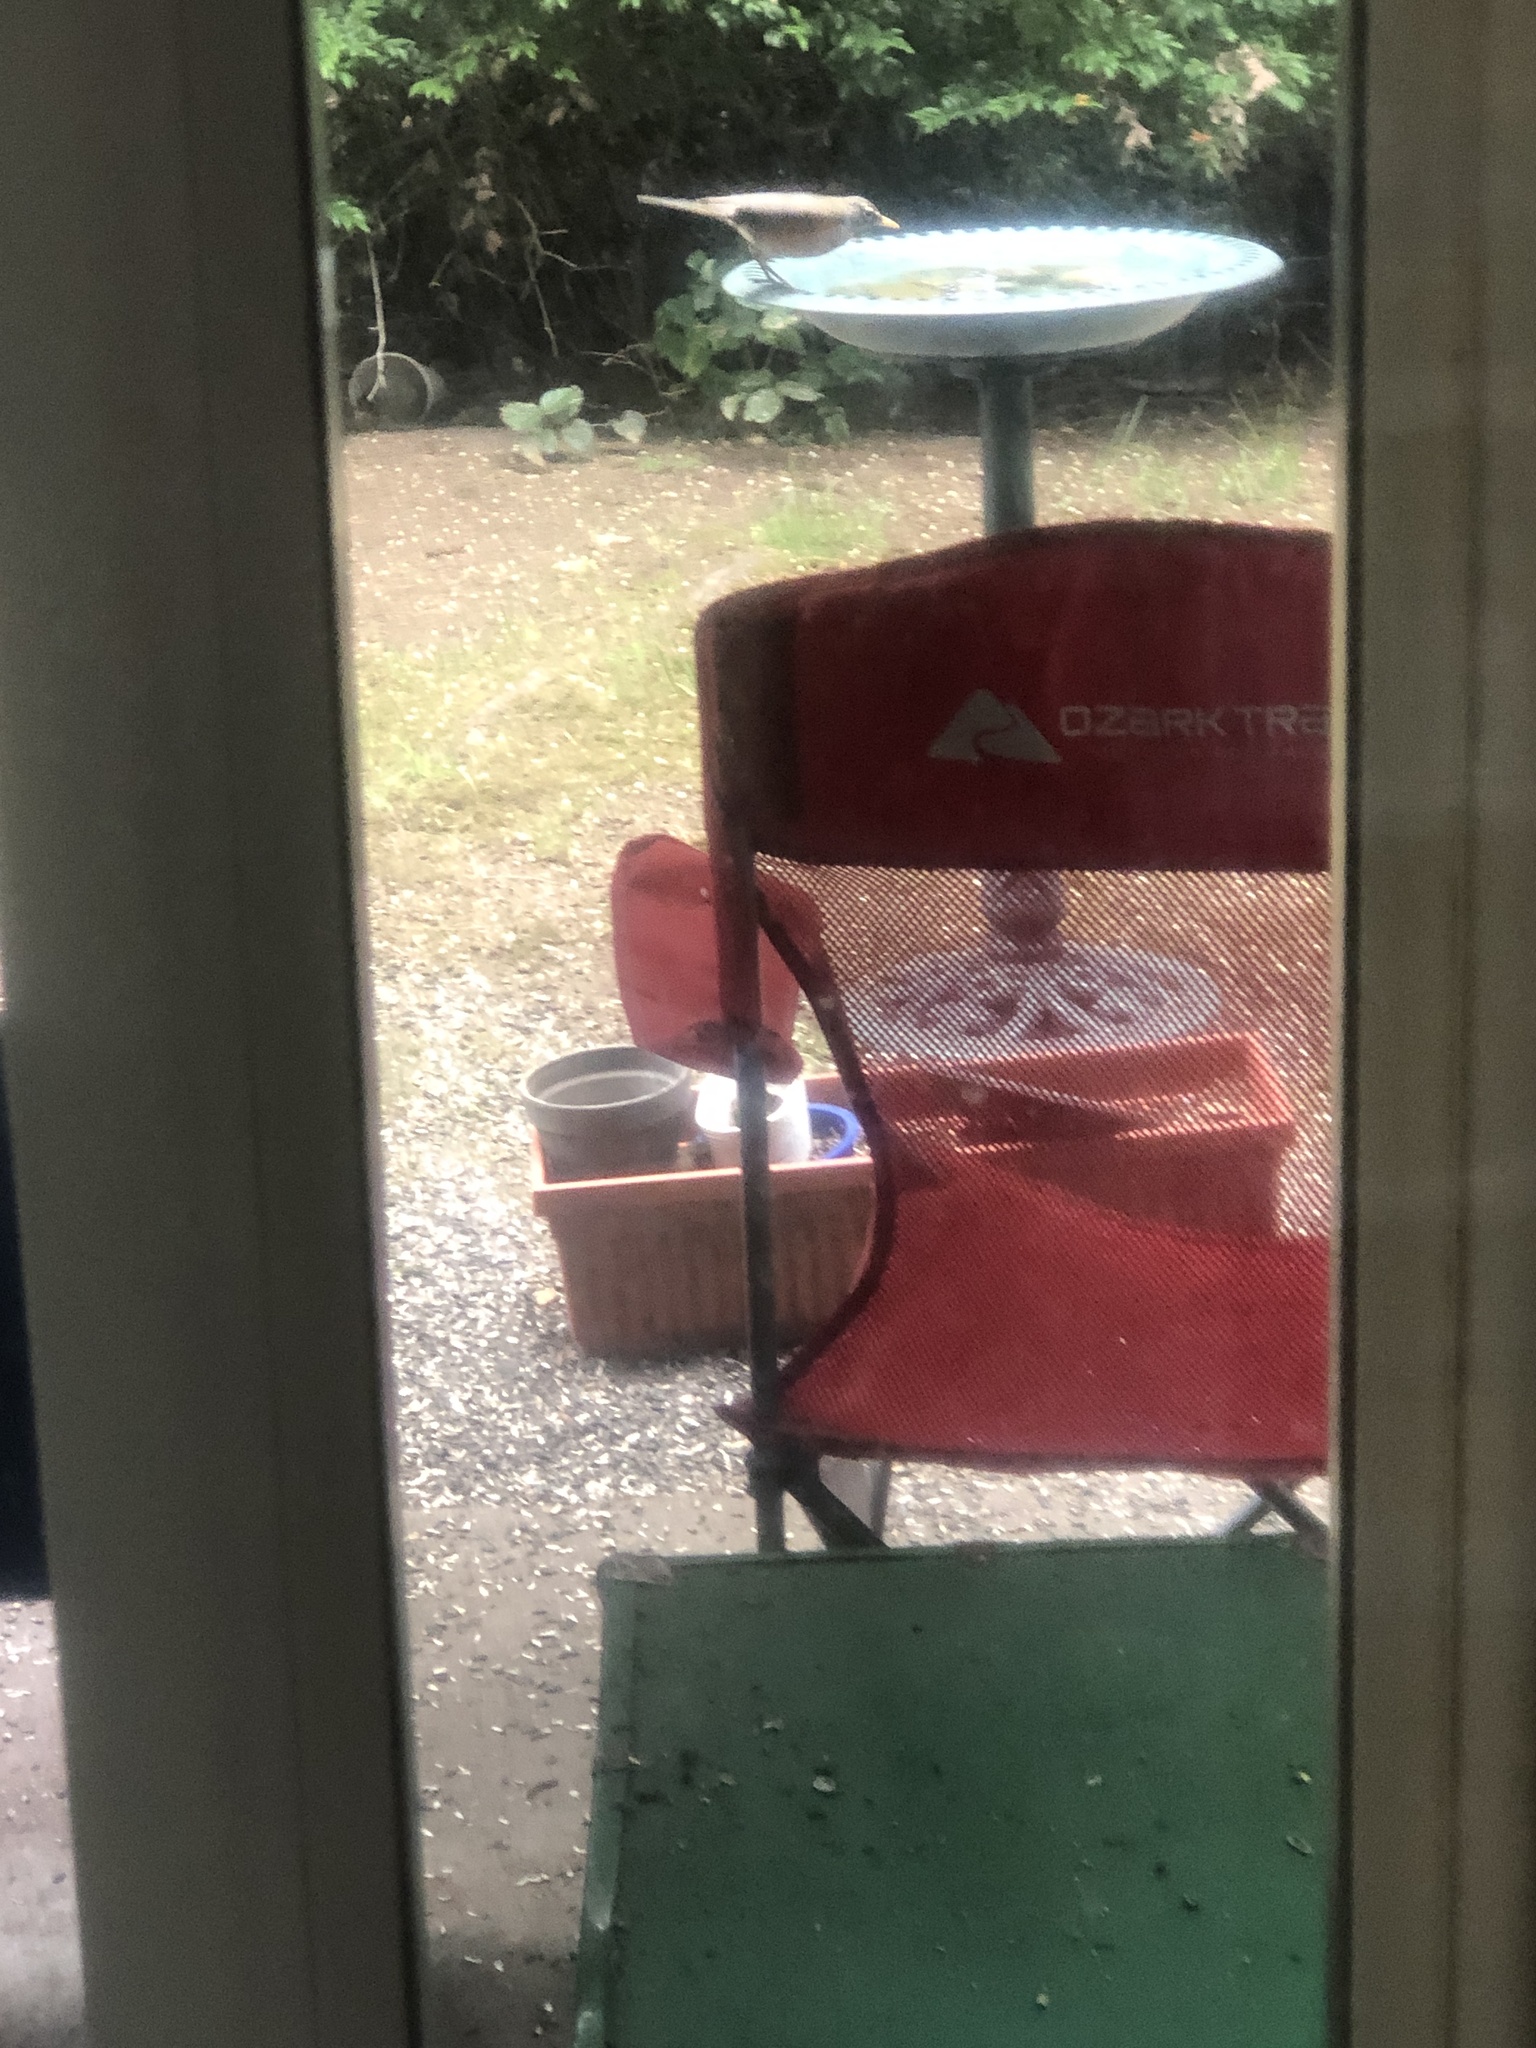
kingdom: Animalia
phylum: Chordata
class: Aves
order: Passeriformes
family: Turdidae
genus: Turdus
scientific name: Turdus migratorius
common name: American robin
